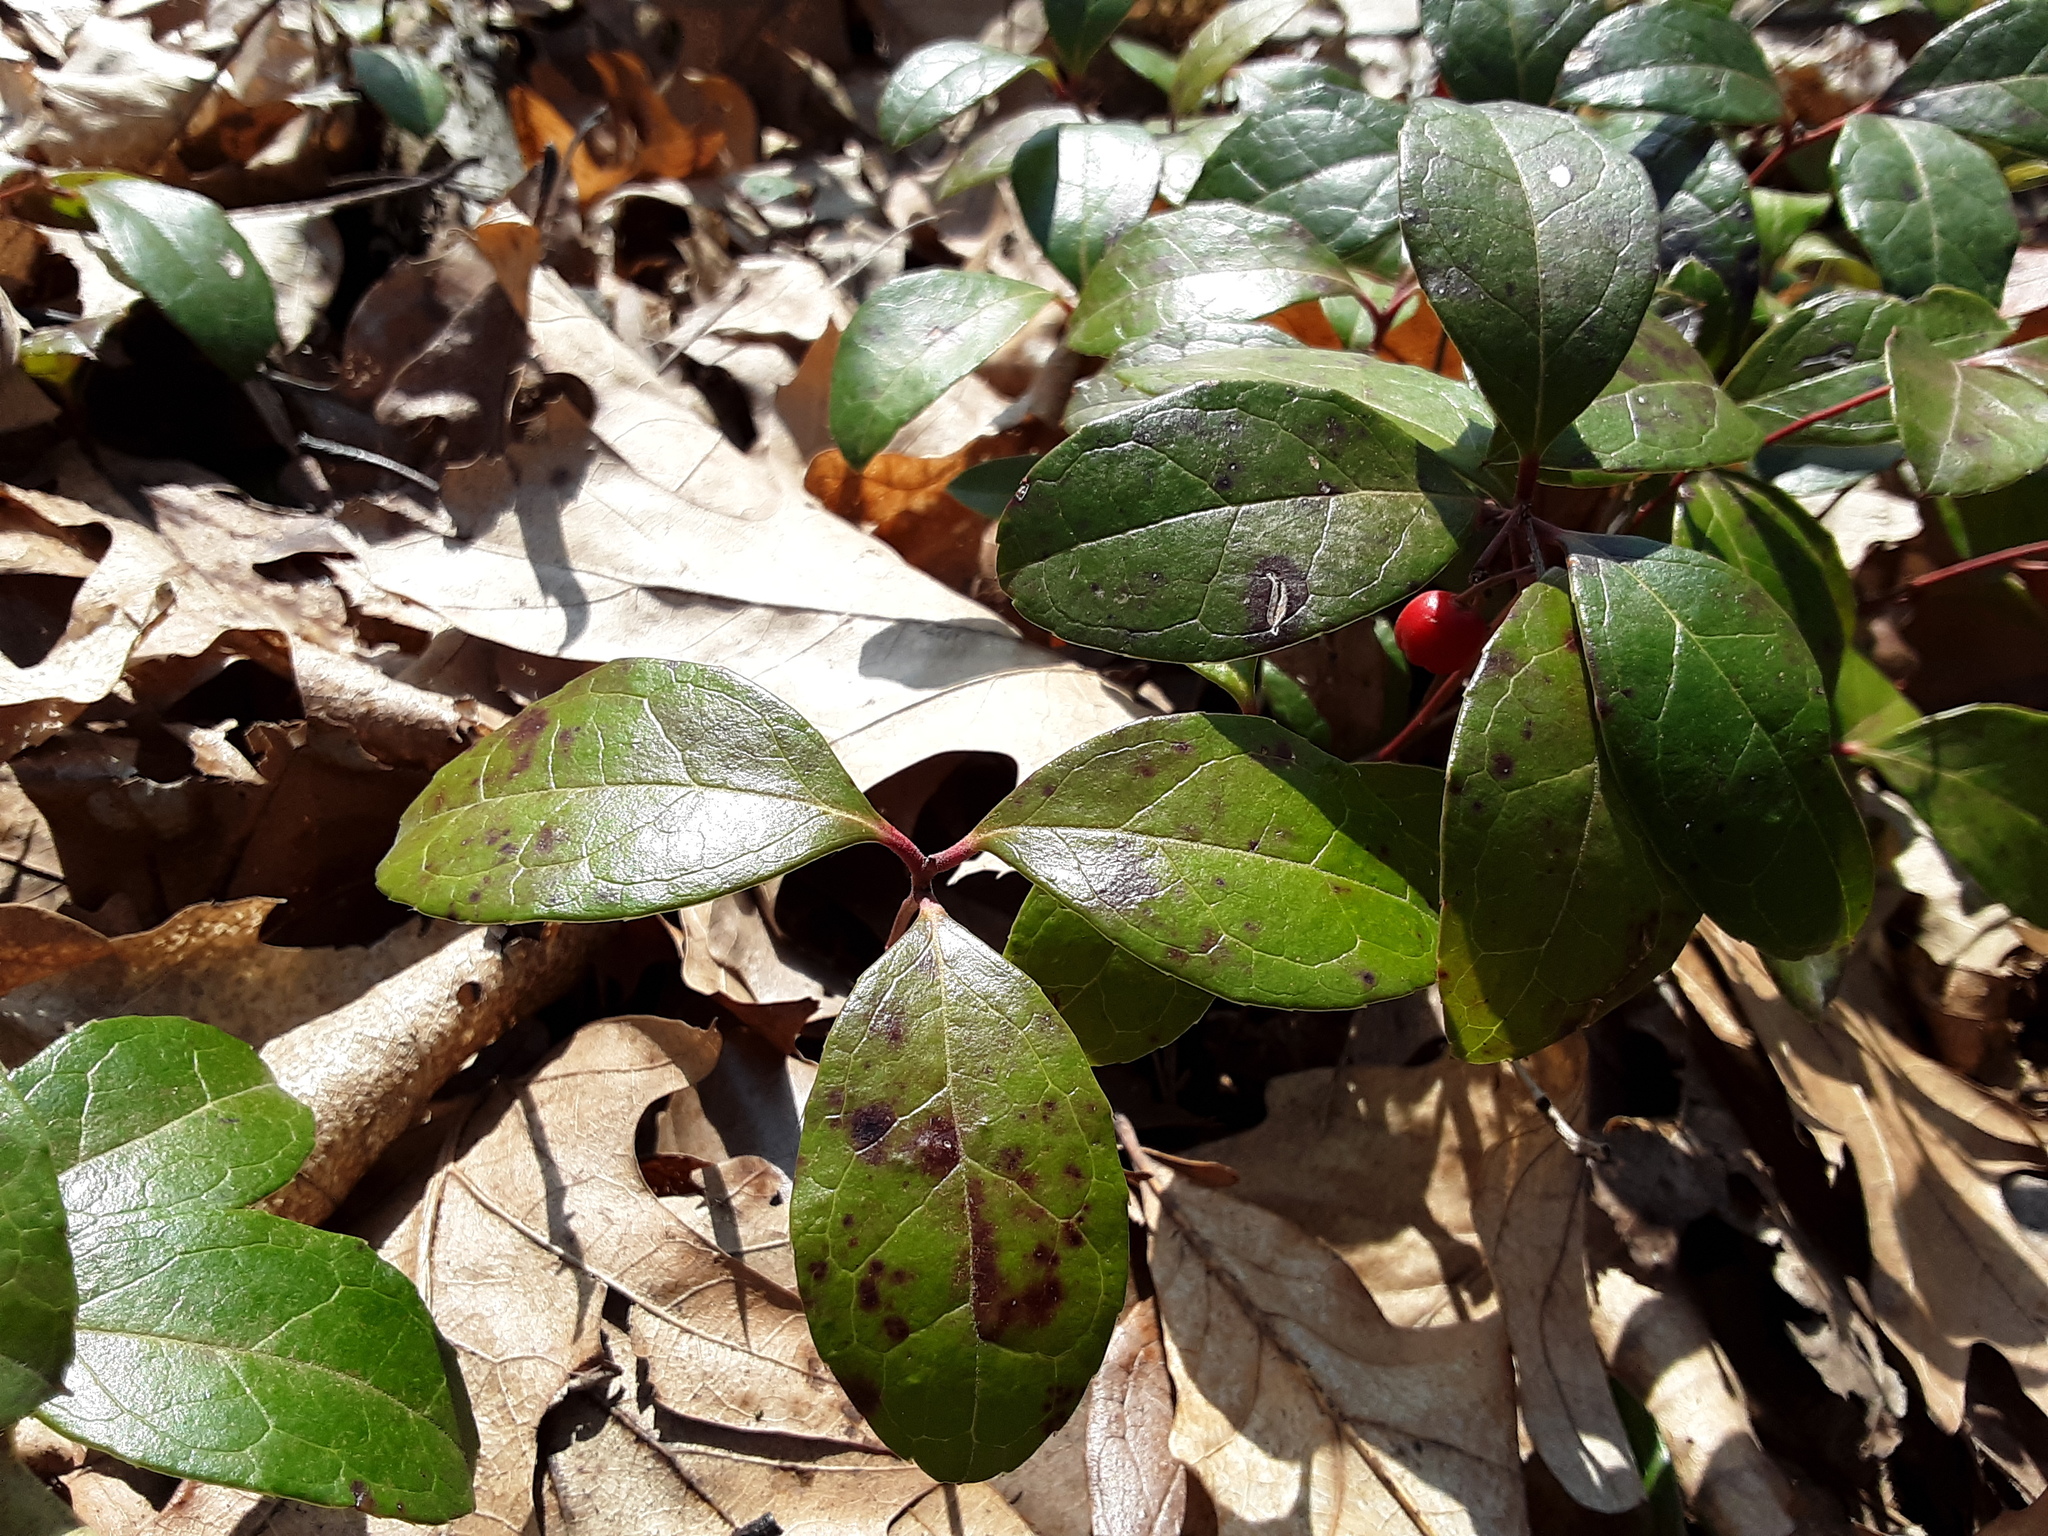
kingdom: Plantae
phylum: Tracheophyta
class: Magnoliopsida
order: Ericales
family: Ericaceae
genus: Gaultheria
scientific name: Gaultheria procumbens
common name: Checkerberry
